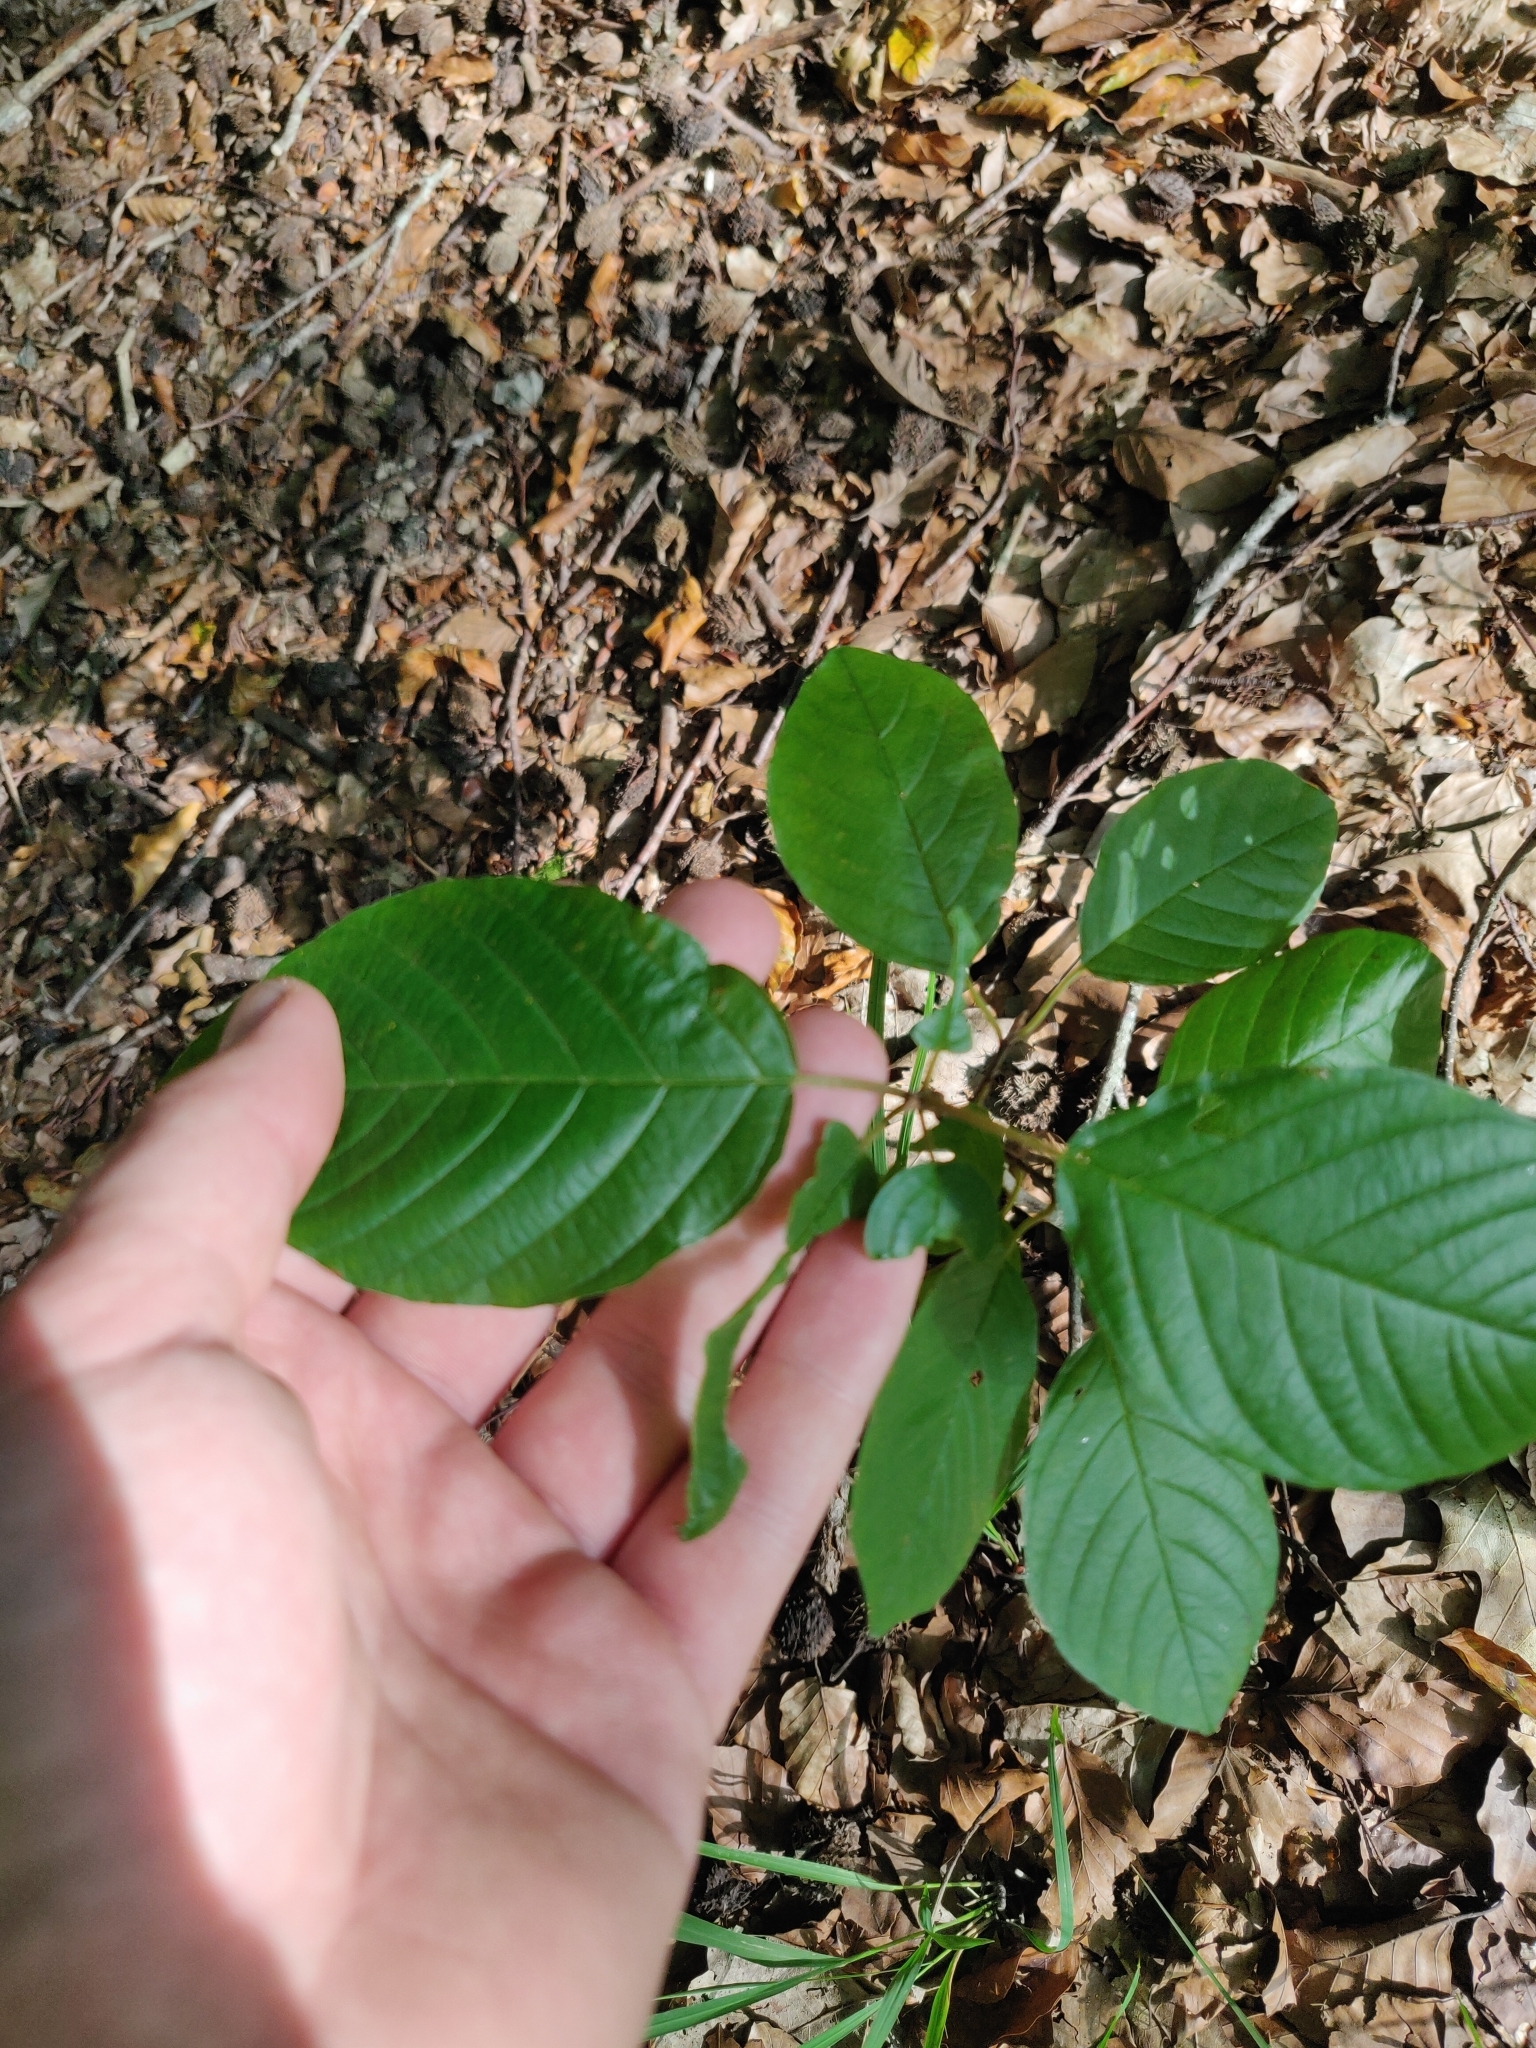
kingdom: Plantae
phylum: Tracheophyta
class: Magnoliopsida
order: Rosales
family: Rhamnaceae
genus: Frangula
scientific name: Frangula alnus
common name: Alder buckthorn
